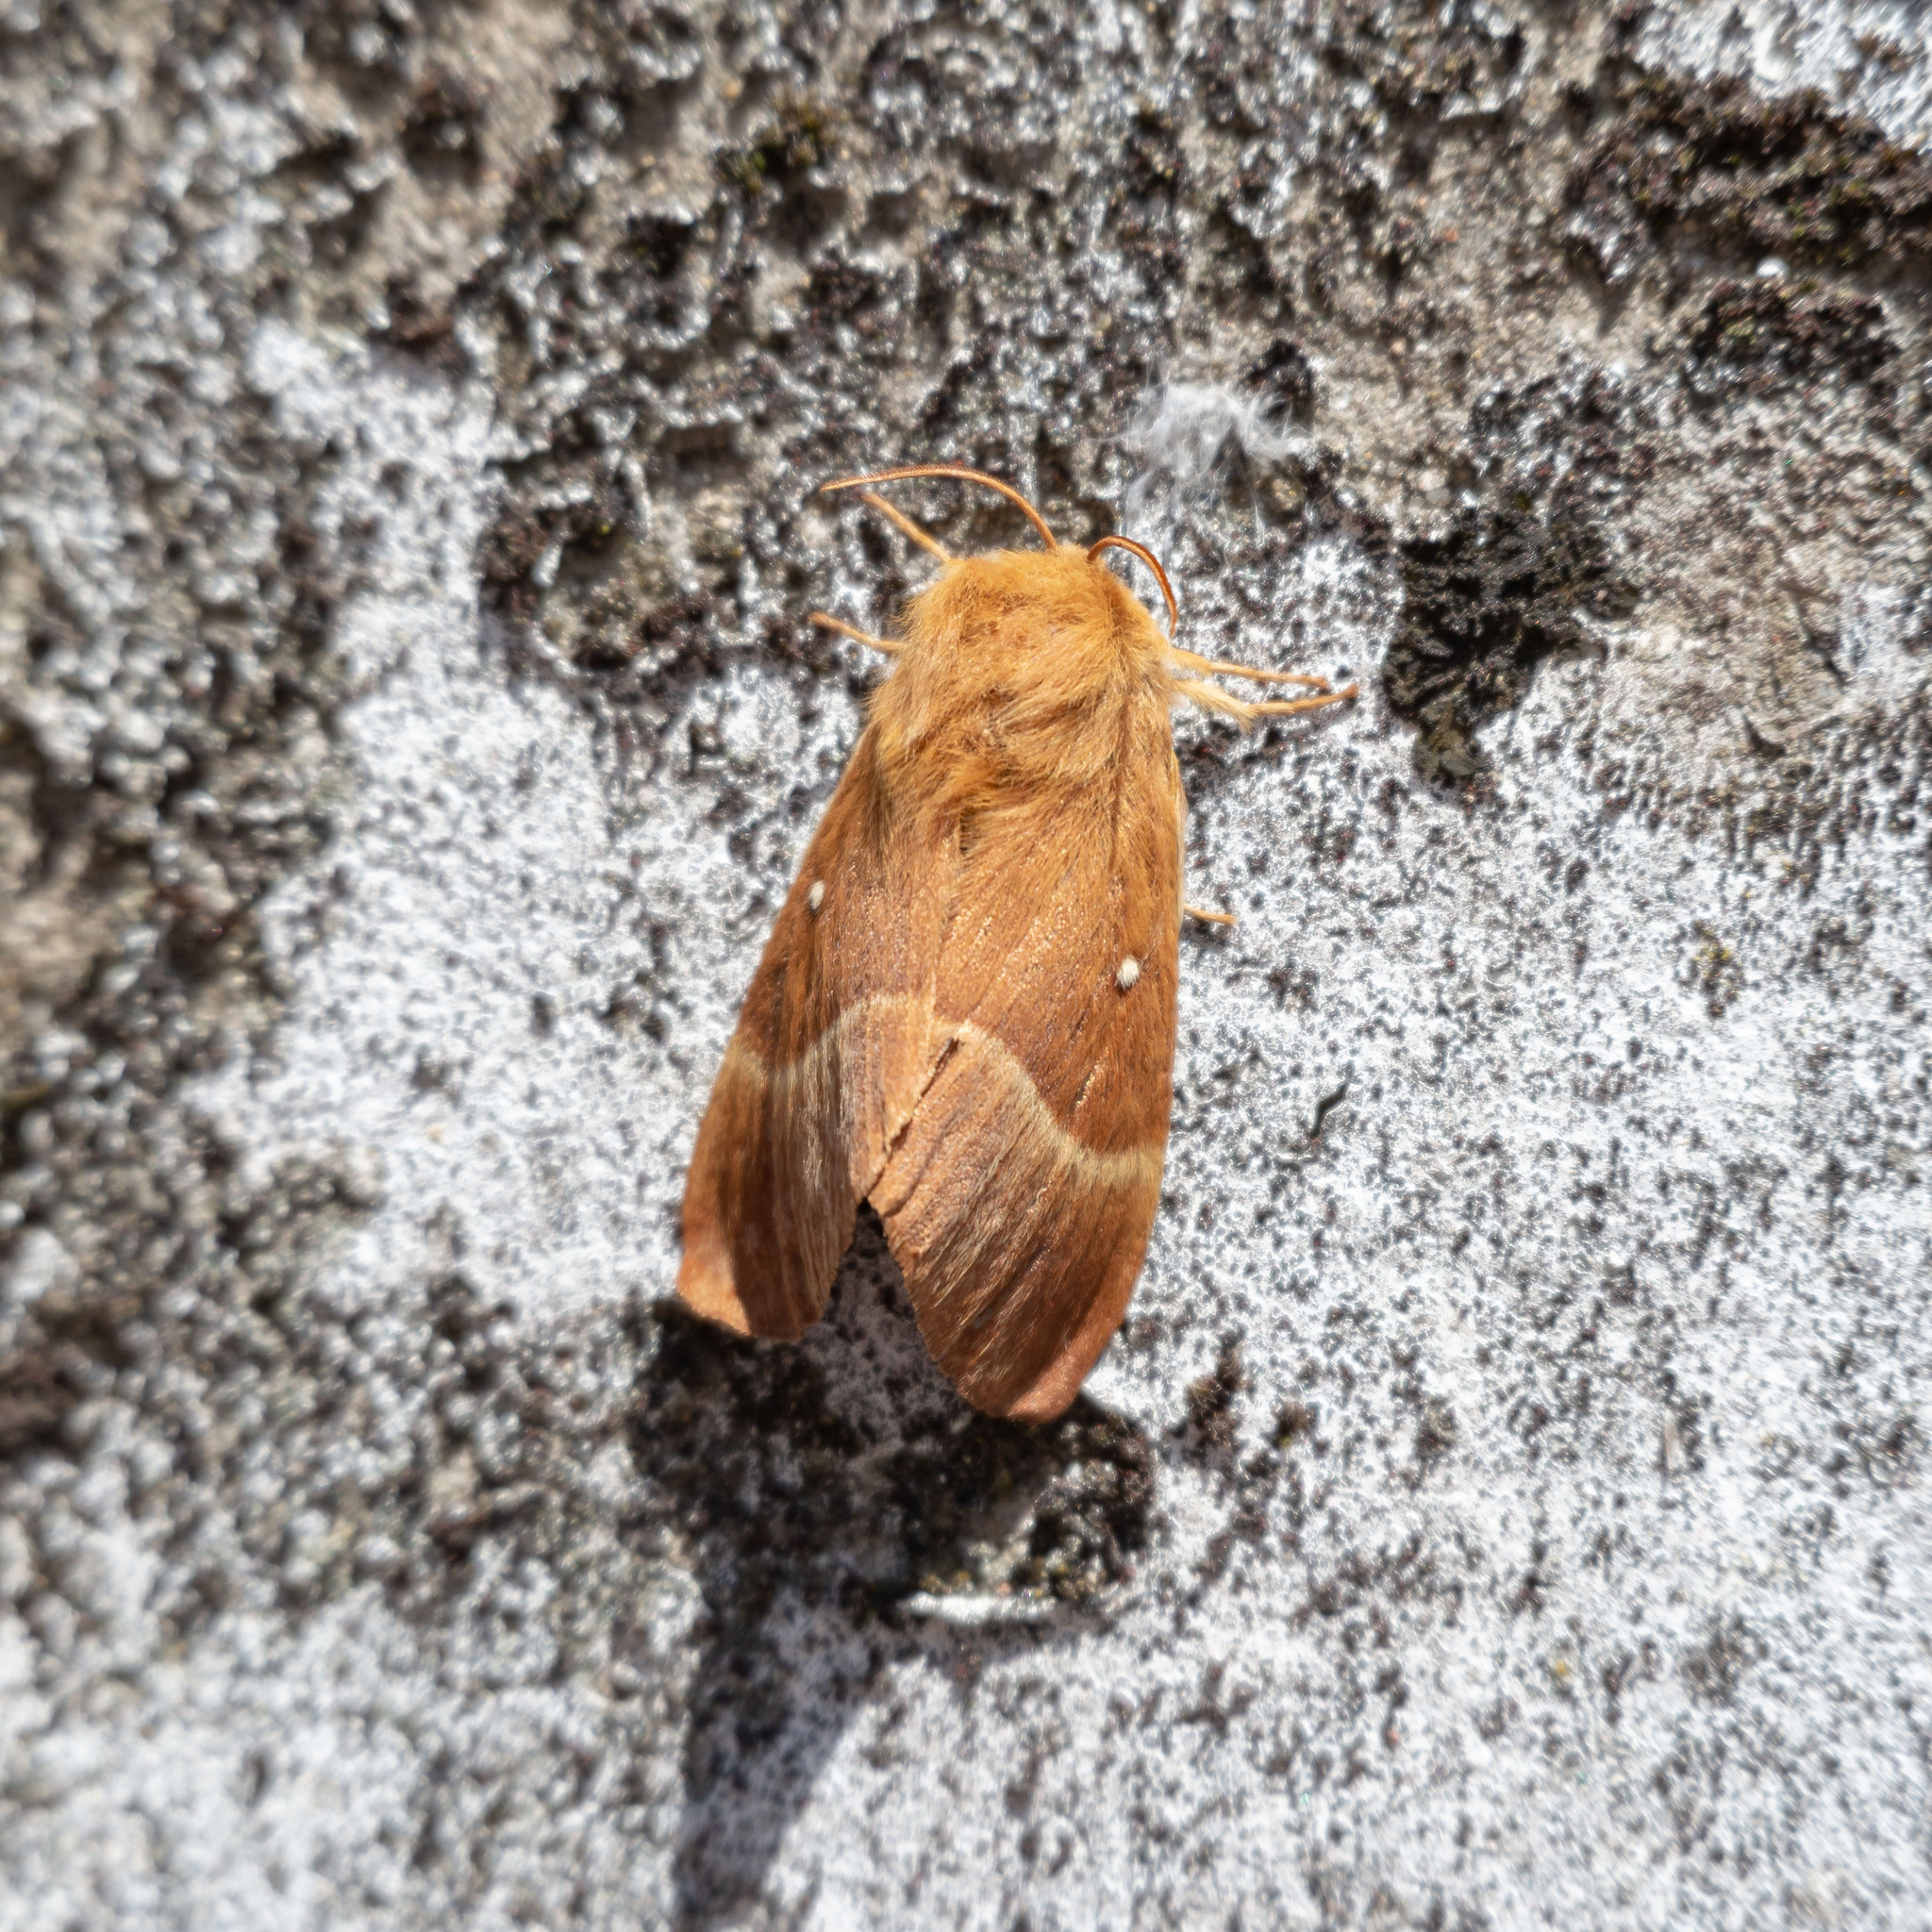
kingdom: Animalia
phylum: Arthropoda
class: Insecta
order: Lepidoptera
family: Lasiocampidae
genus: Lasiocampa
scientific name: Lasiocampa quercus
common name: Oak eggar
